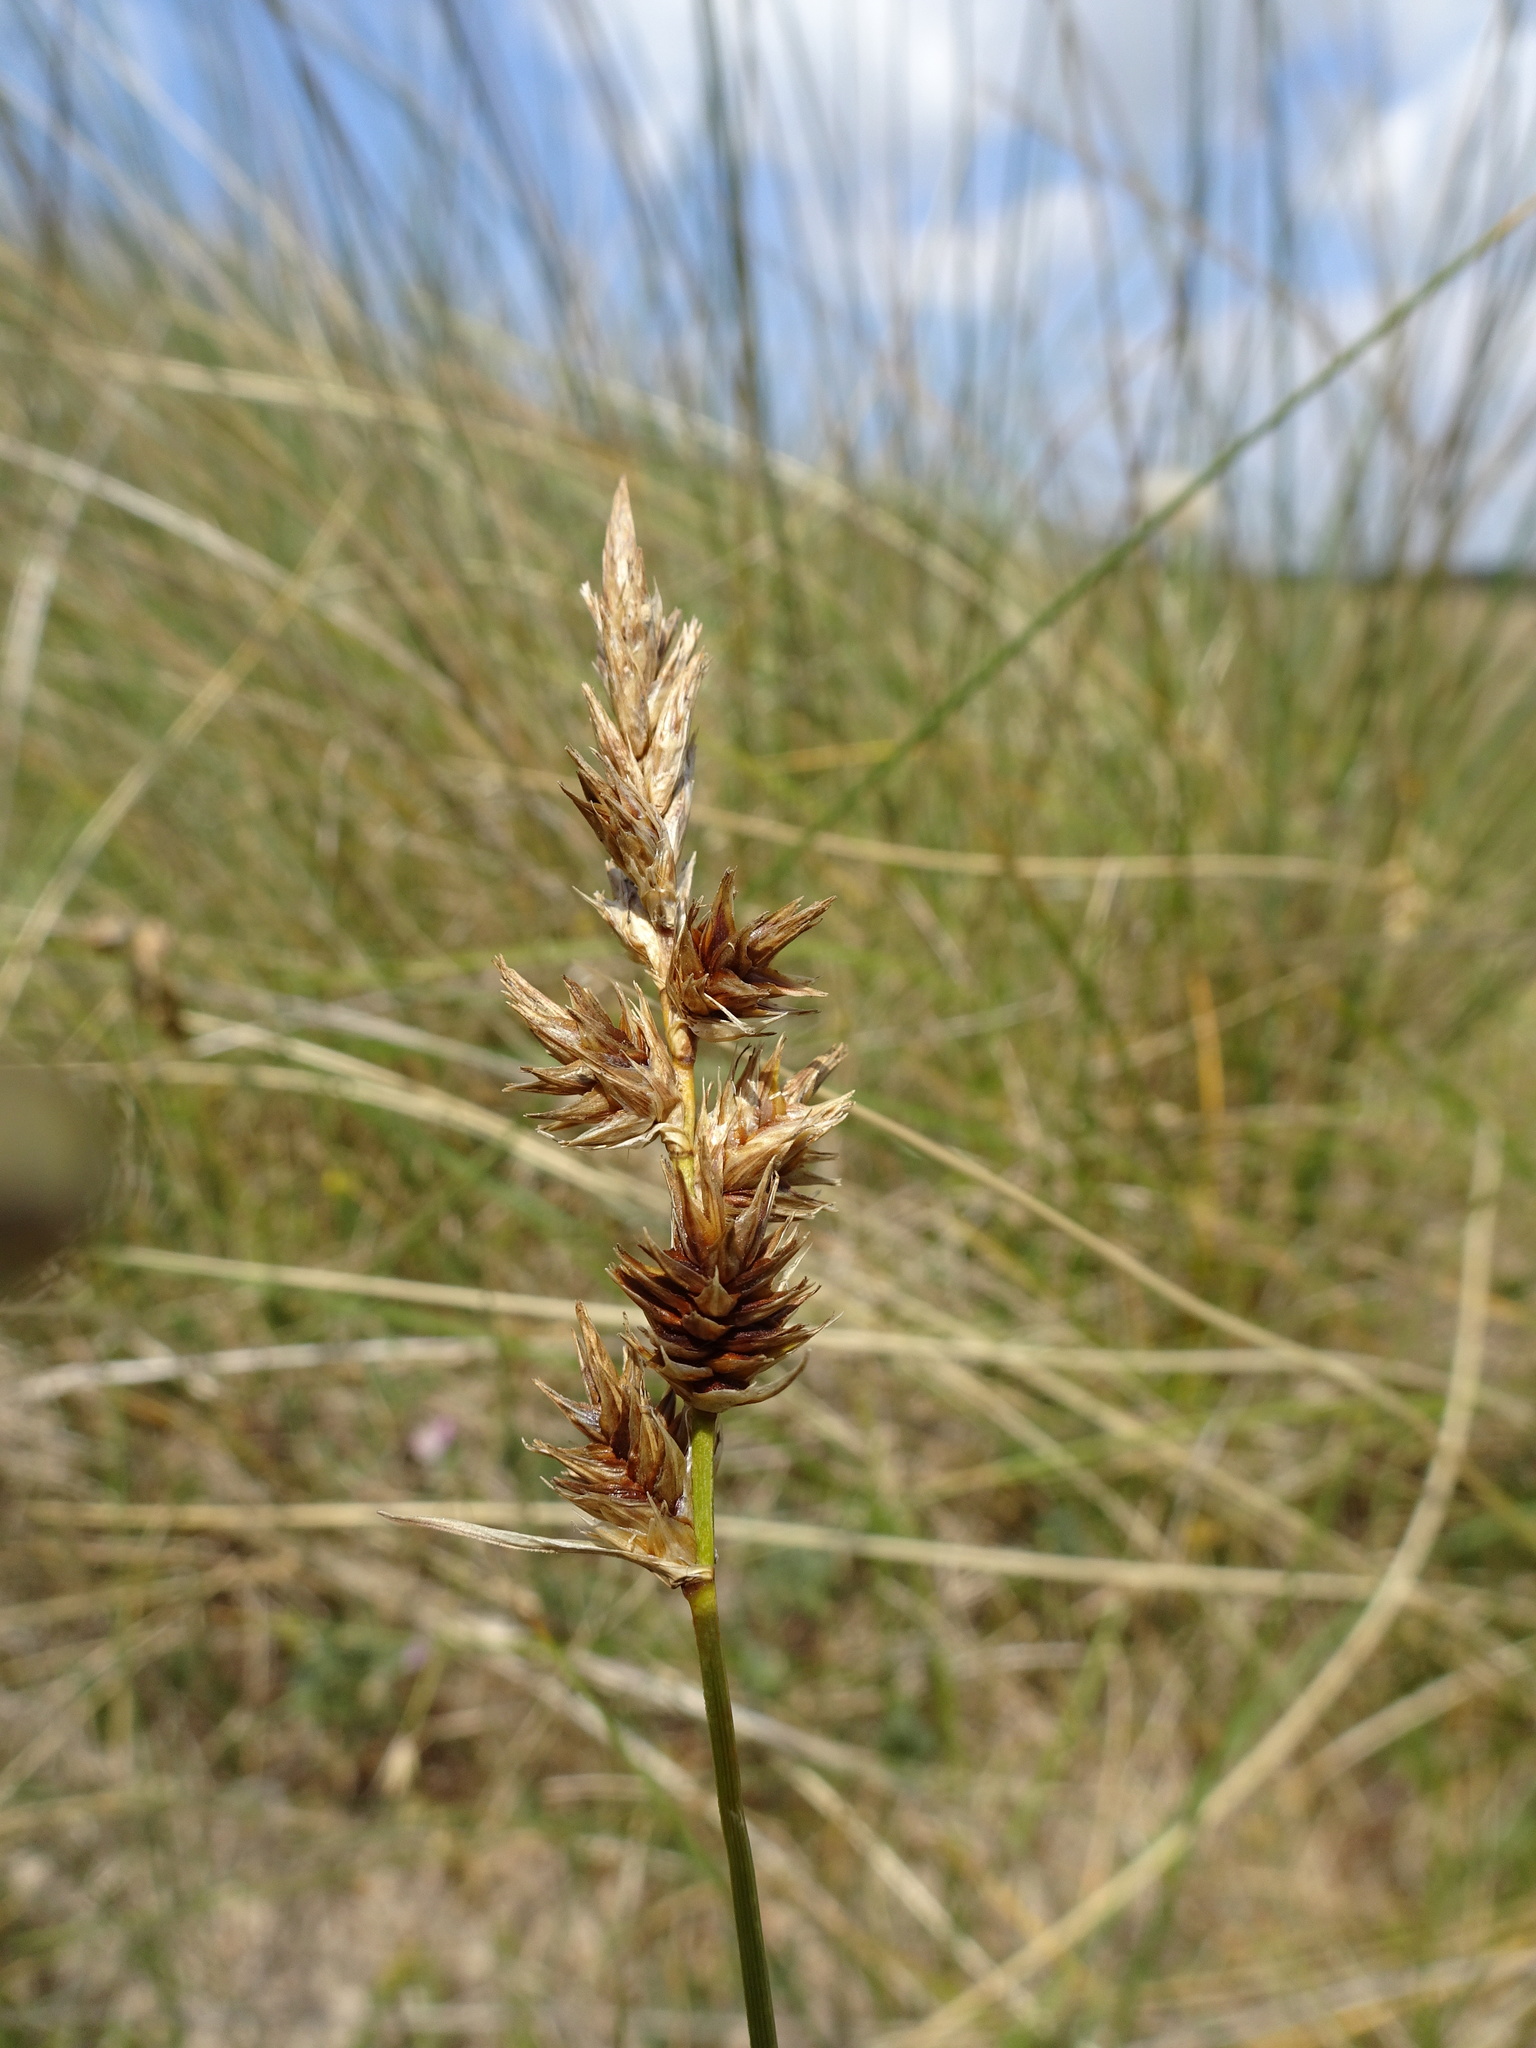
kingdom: Plantae
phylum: Tracheophyta
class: Liliopsida
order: Poales
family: Cyperaceae
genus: Carex
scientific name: Carex arenaria
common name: Sand sedge
